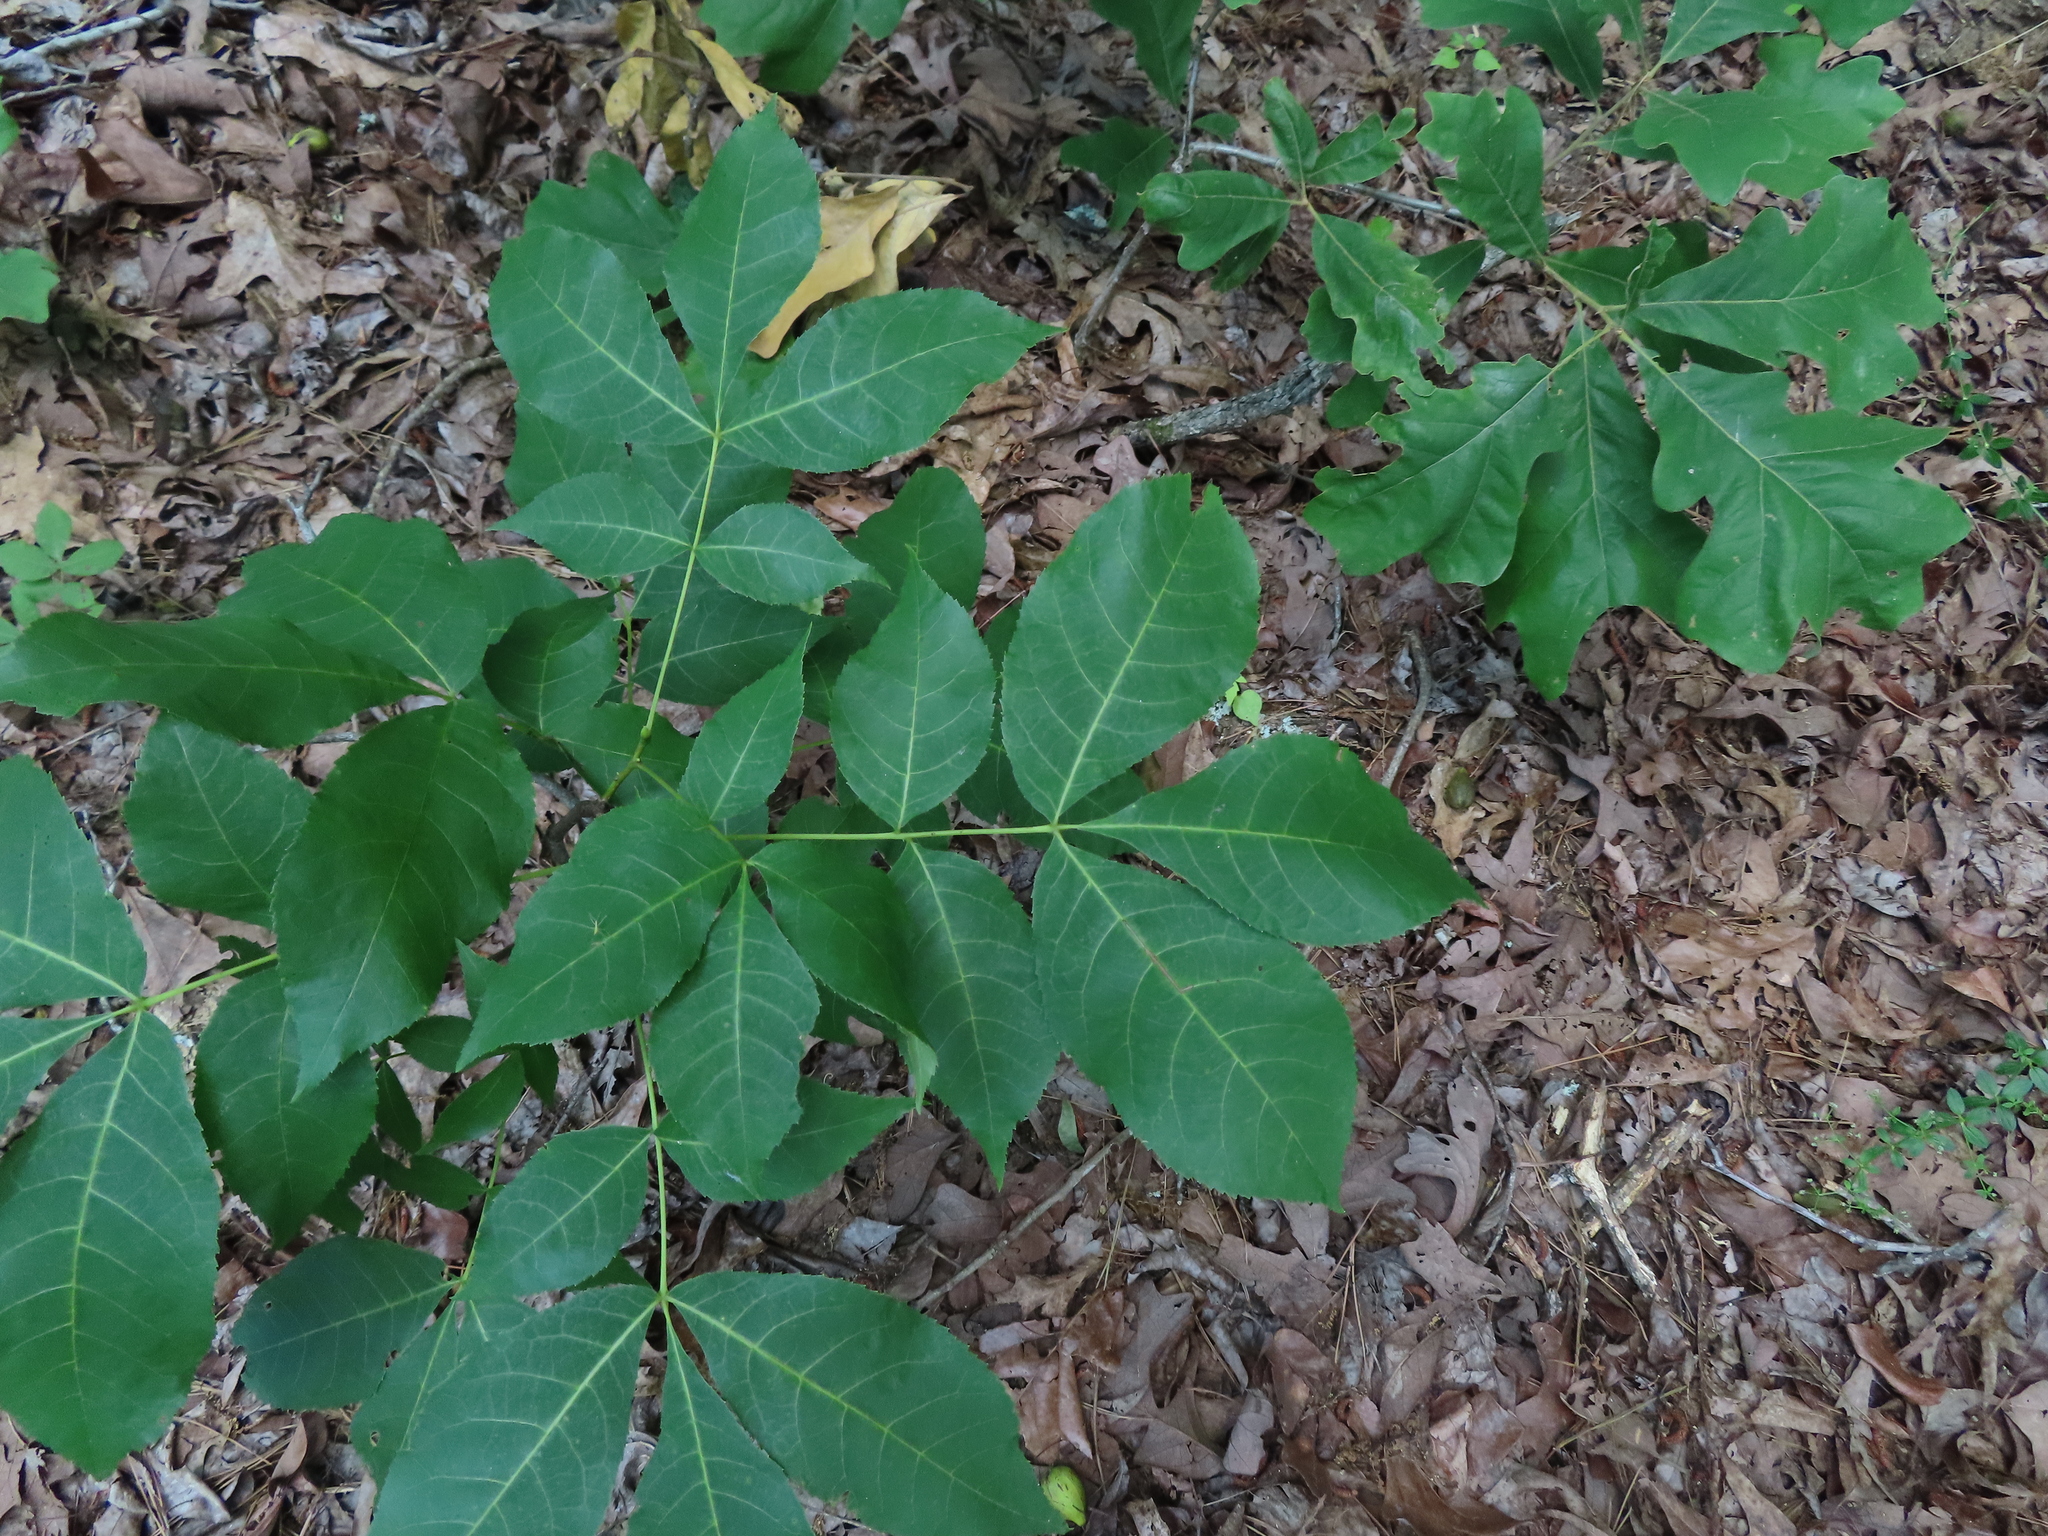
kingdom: Plantae
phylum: Tracheophyta
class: Magnoliopsida
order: Fagales
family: Juglandaceae
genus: Carya
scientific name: Carya glabra
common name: Pignut hickory
